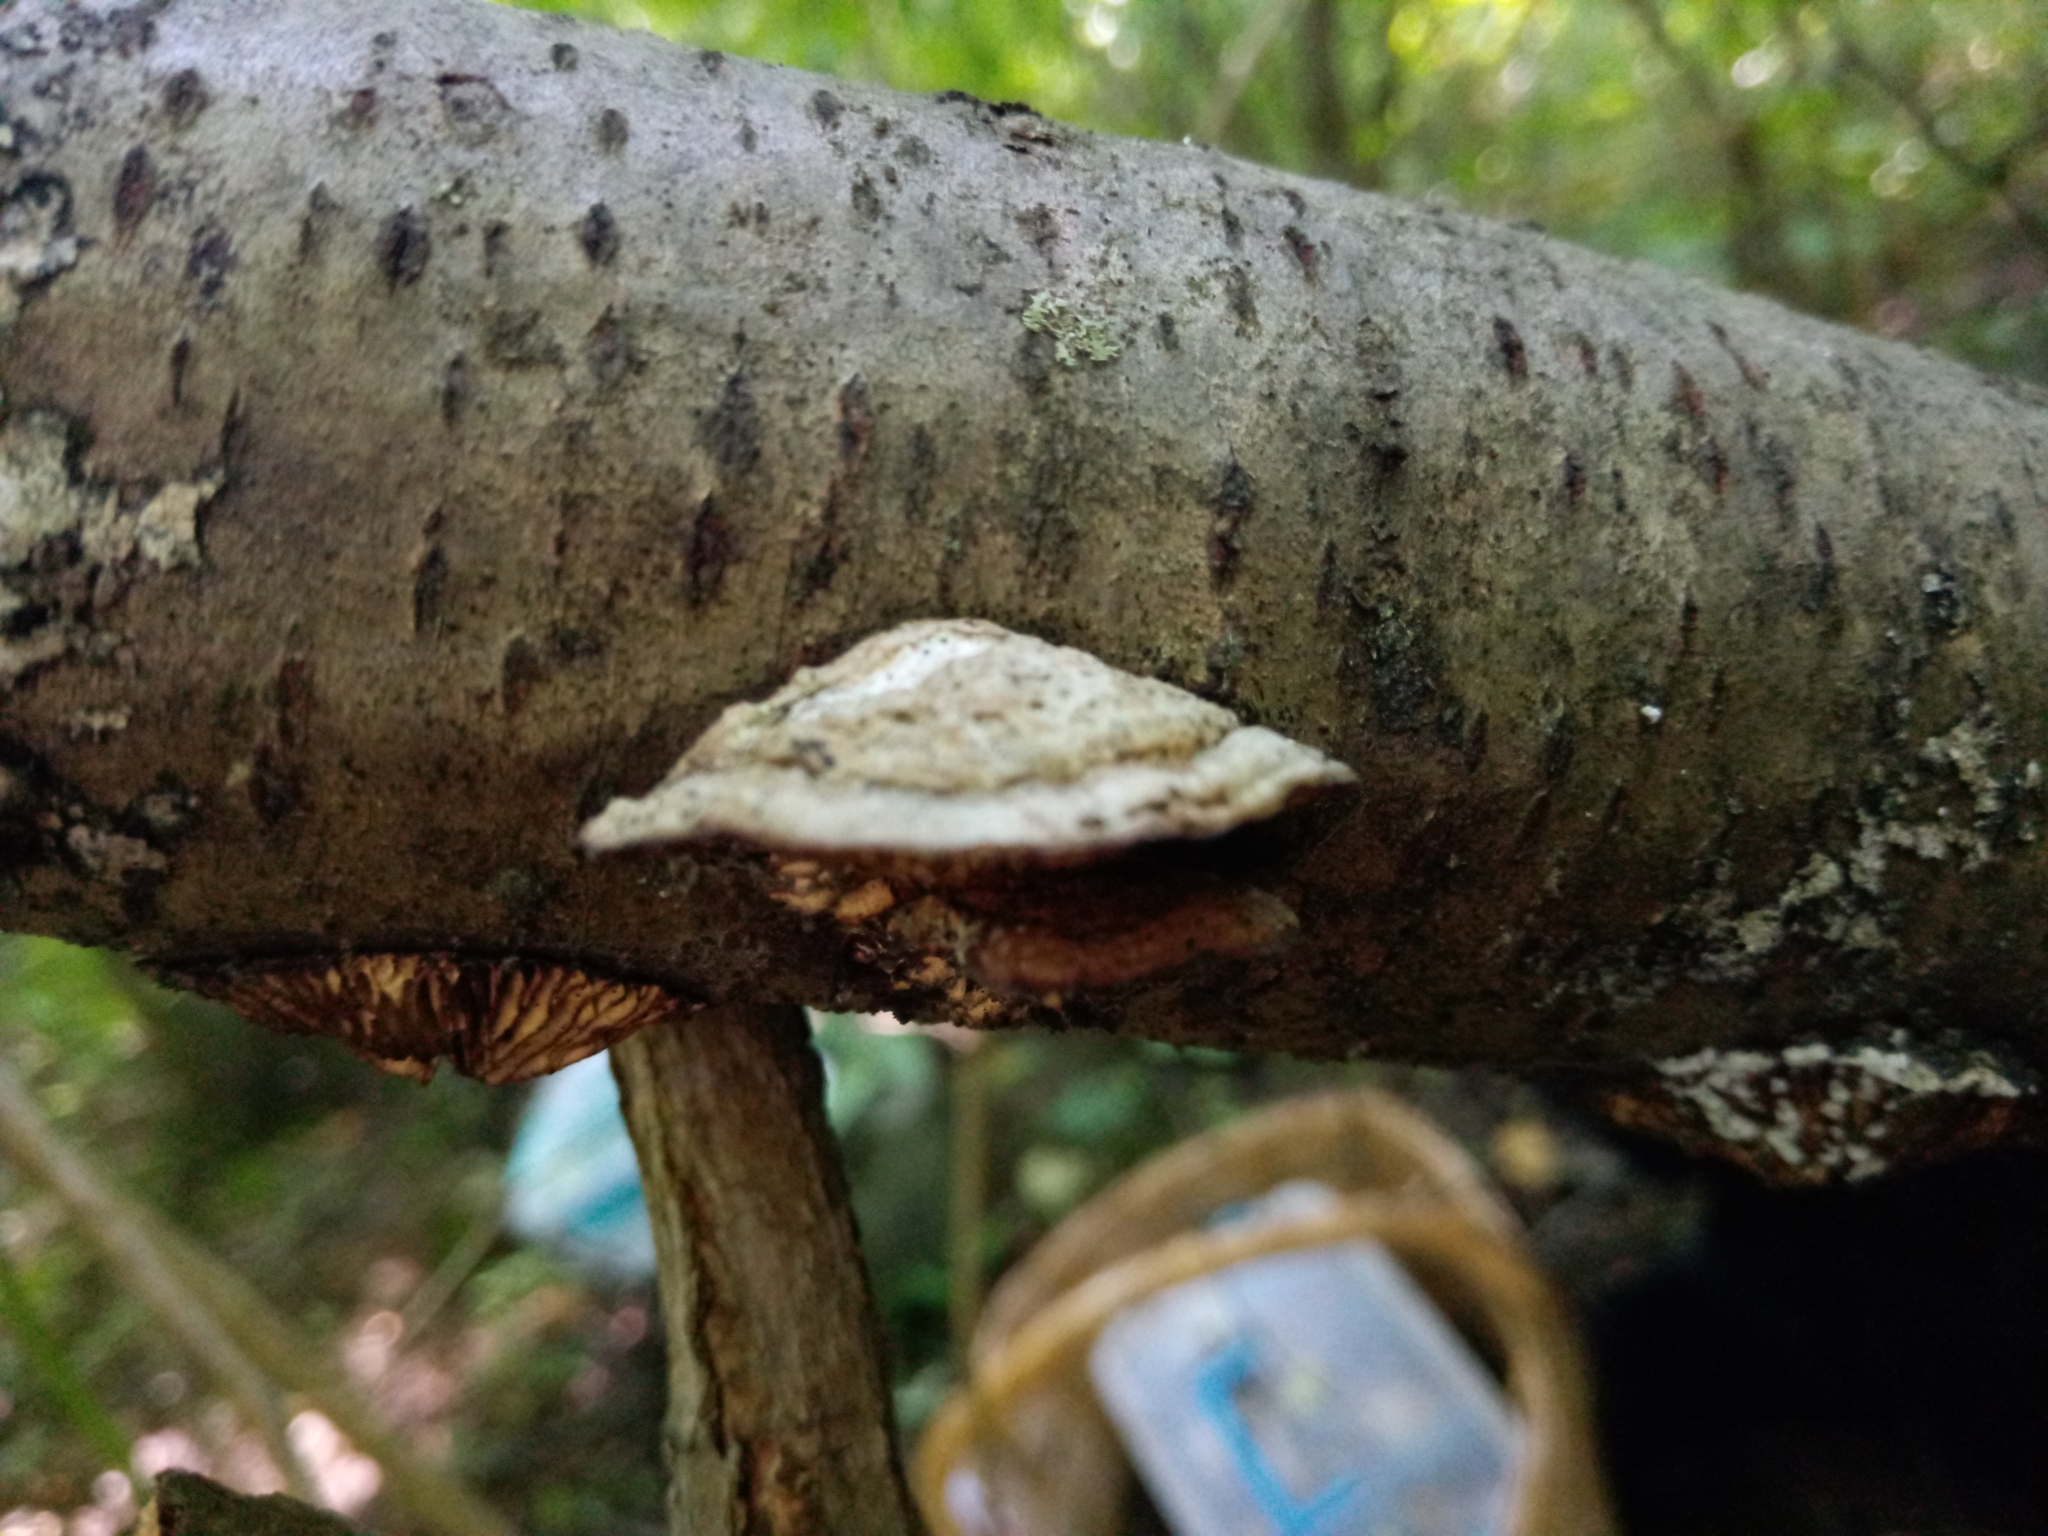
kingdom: Fungi
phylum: Basidiomycota
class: Agaricomycetes
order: Polyporales
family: Polyporaceae
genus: Lenzites
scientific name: Lenzites betulinus
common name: Birch mazegill
